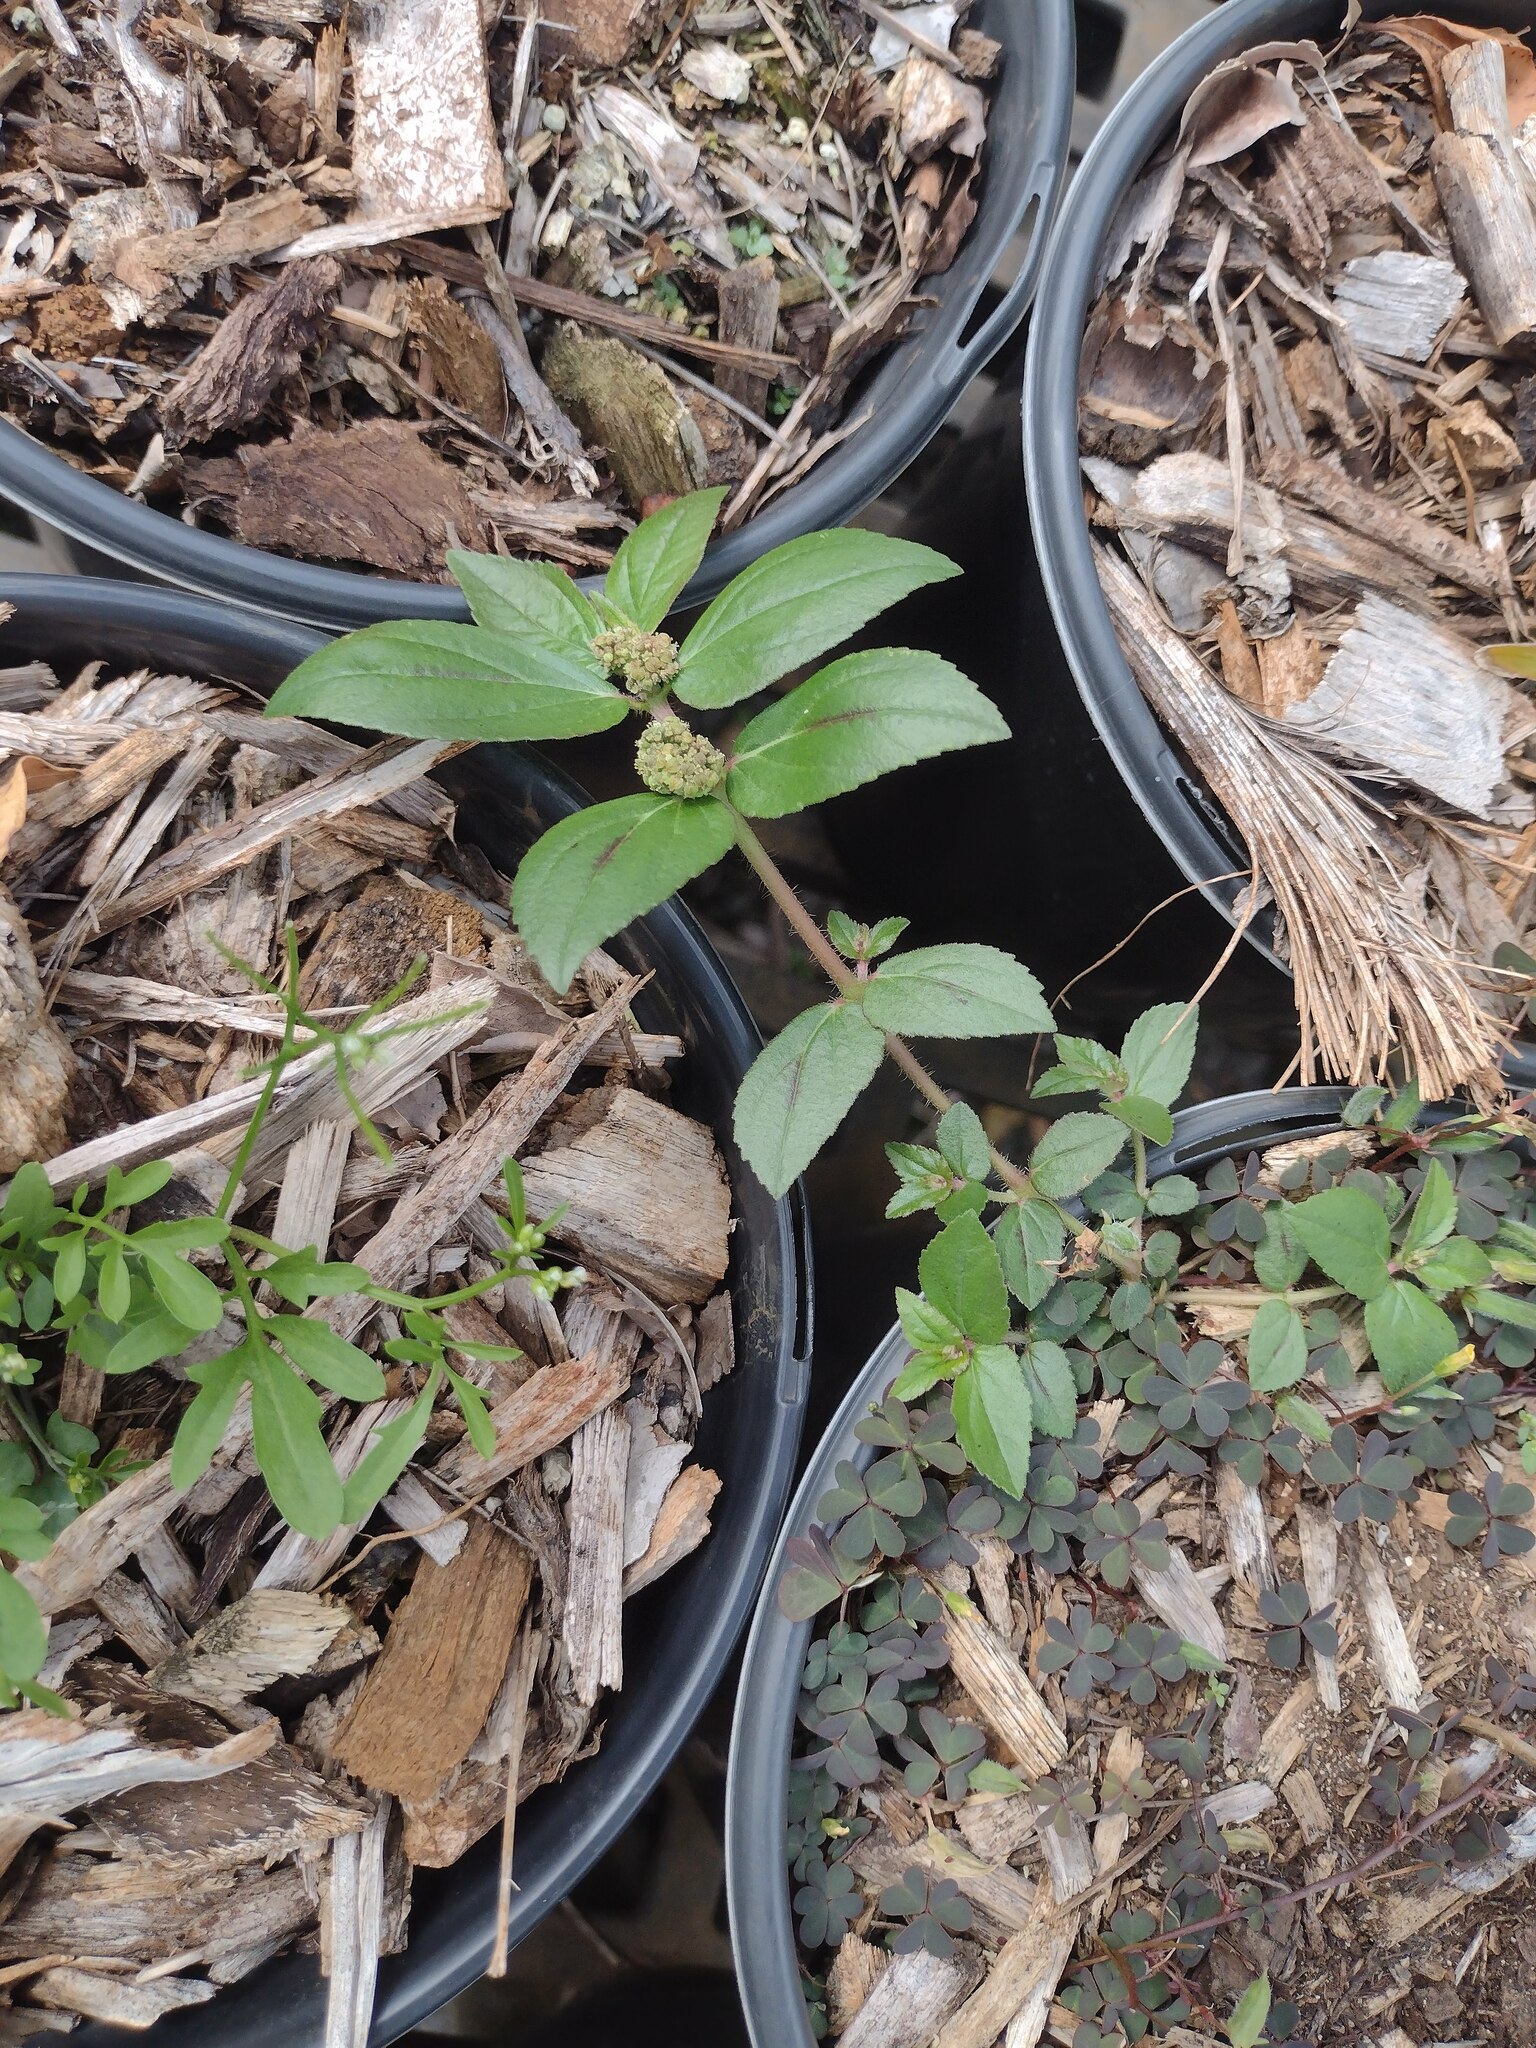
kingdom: Plantae
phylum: Tracheophyta
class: Magnoliopsida
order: Malpighiales
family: Euphorbiaceae
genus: Euphorbia
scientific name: Euphorbia hirta
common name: Pillpod sandmat
